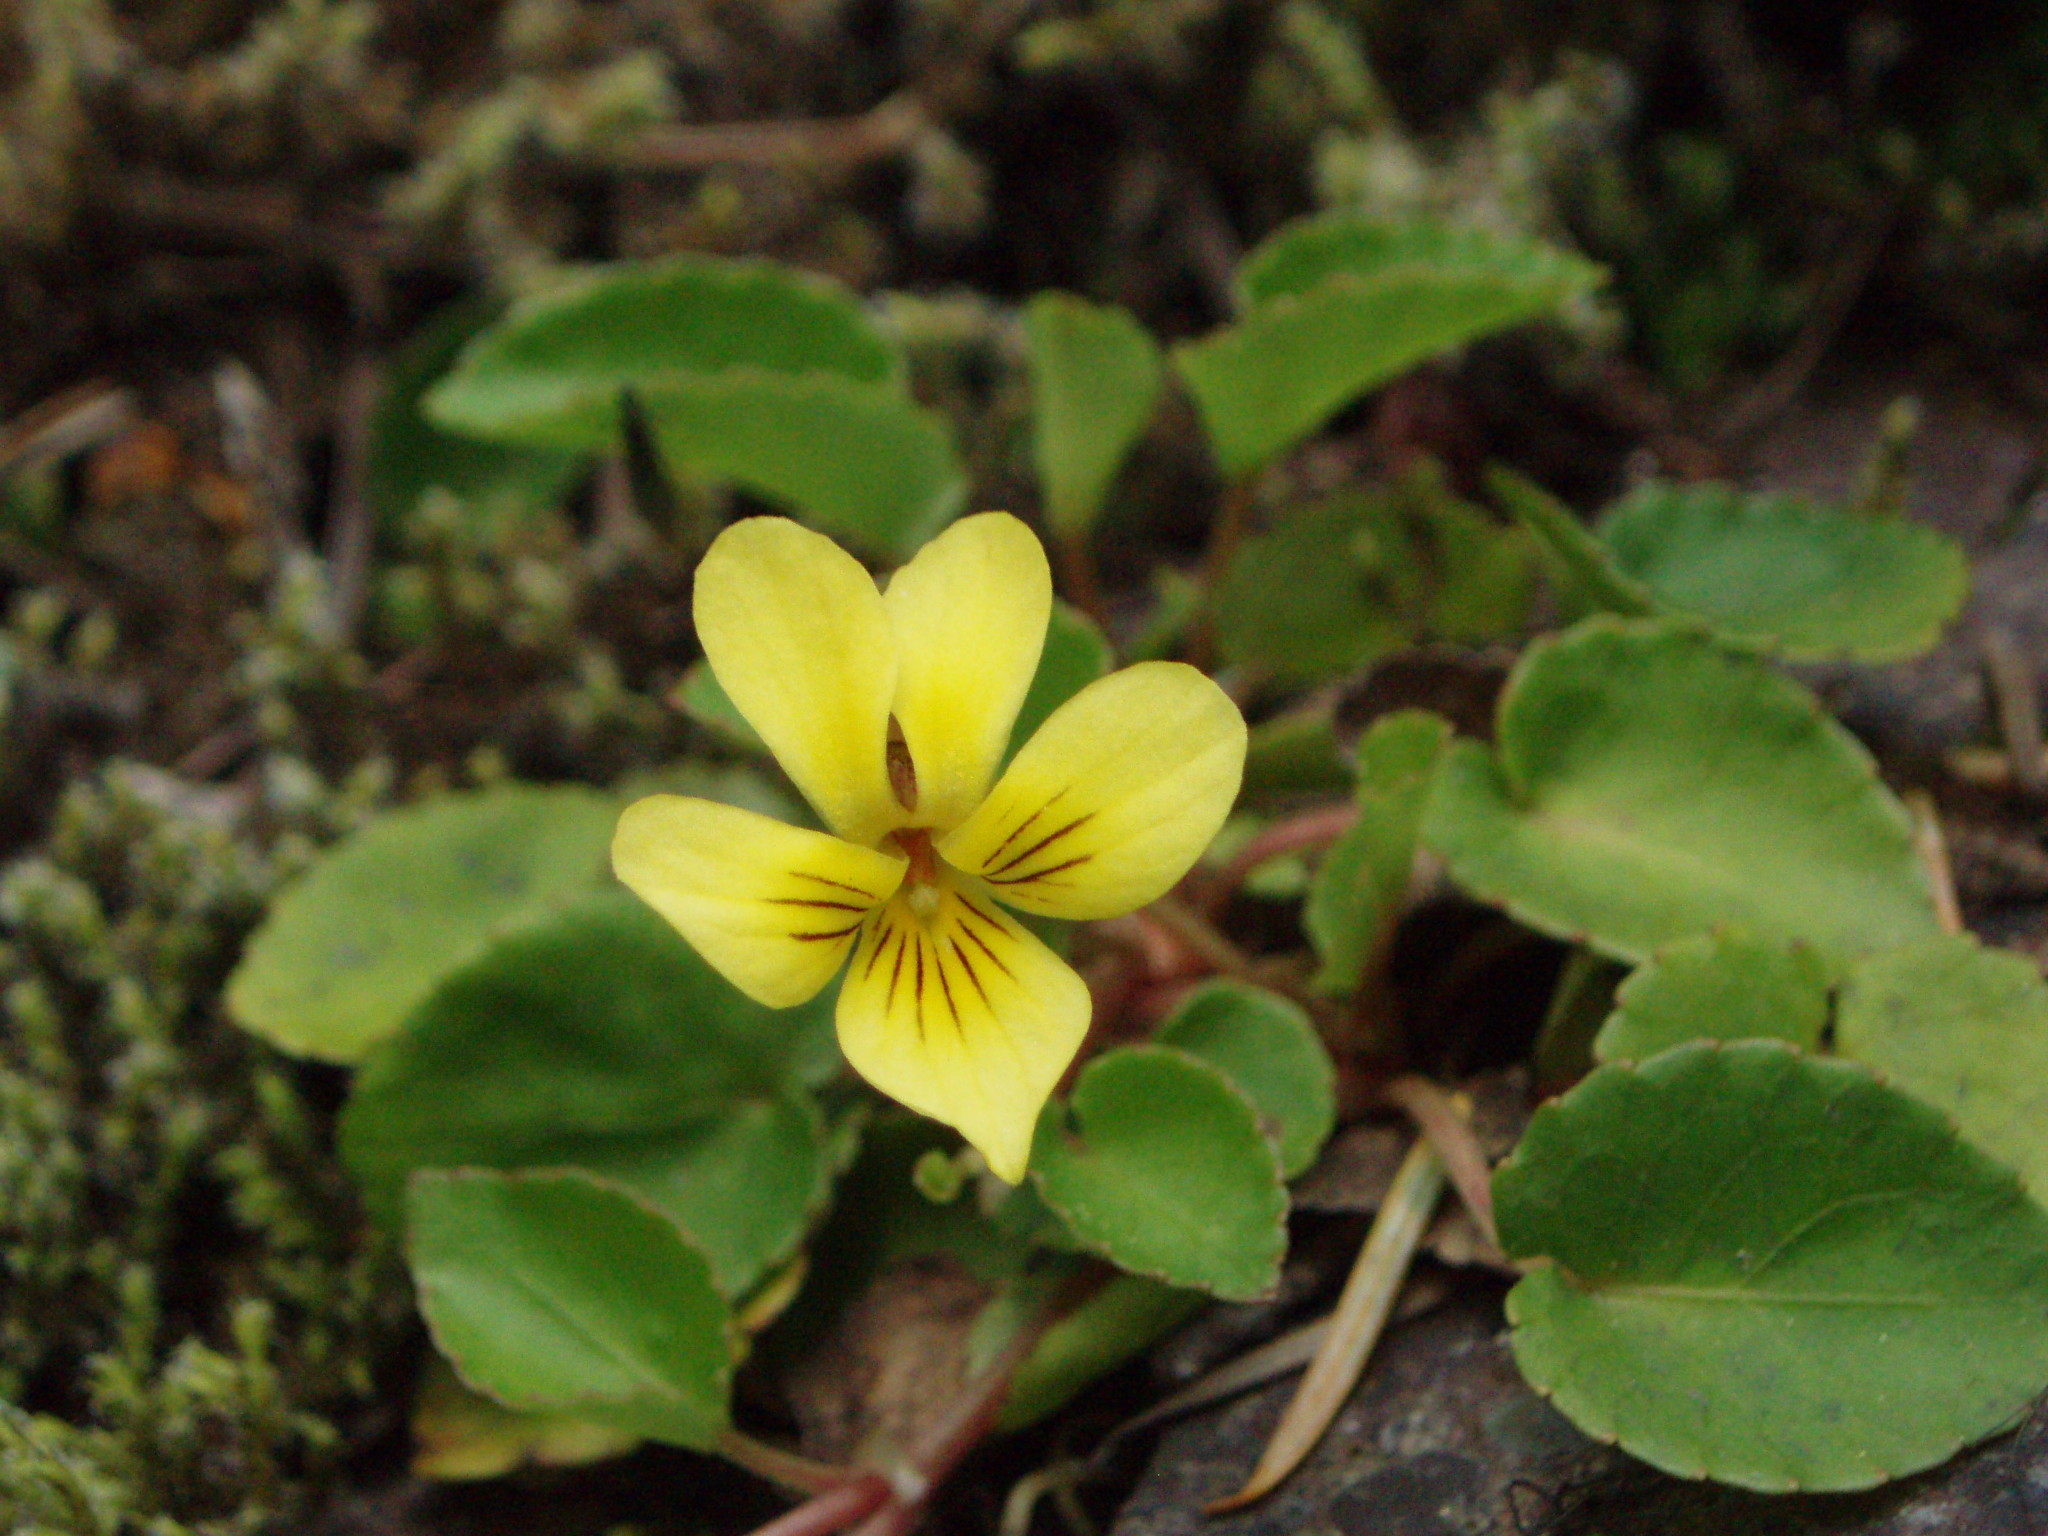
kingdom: Plantae
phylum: Tracheophyta
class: Magnoliopsida
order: Malpighiales
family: Violaceae
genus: Viola
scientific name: Viola sempervirens
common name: Evergreen violet
